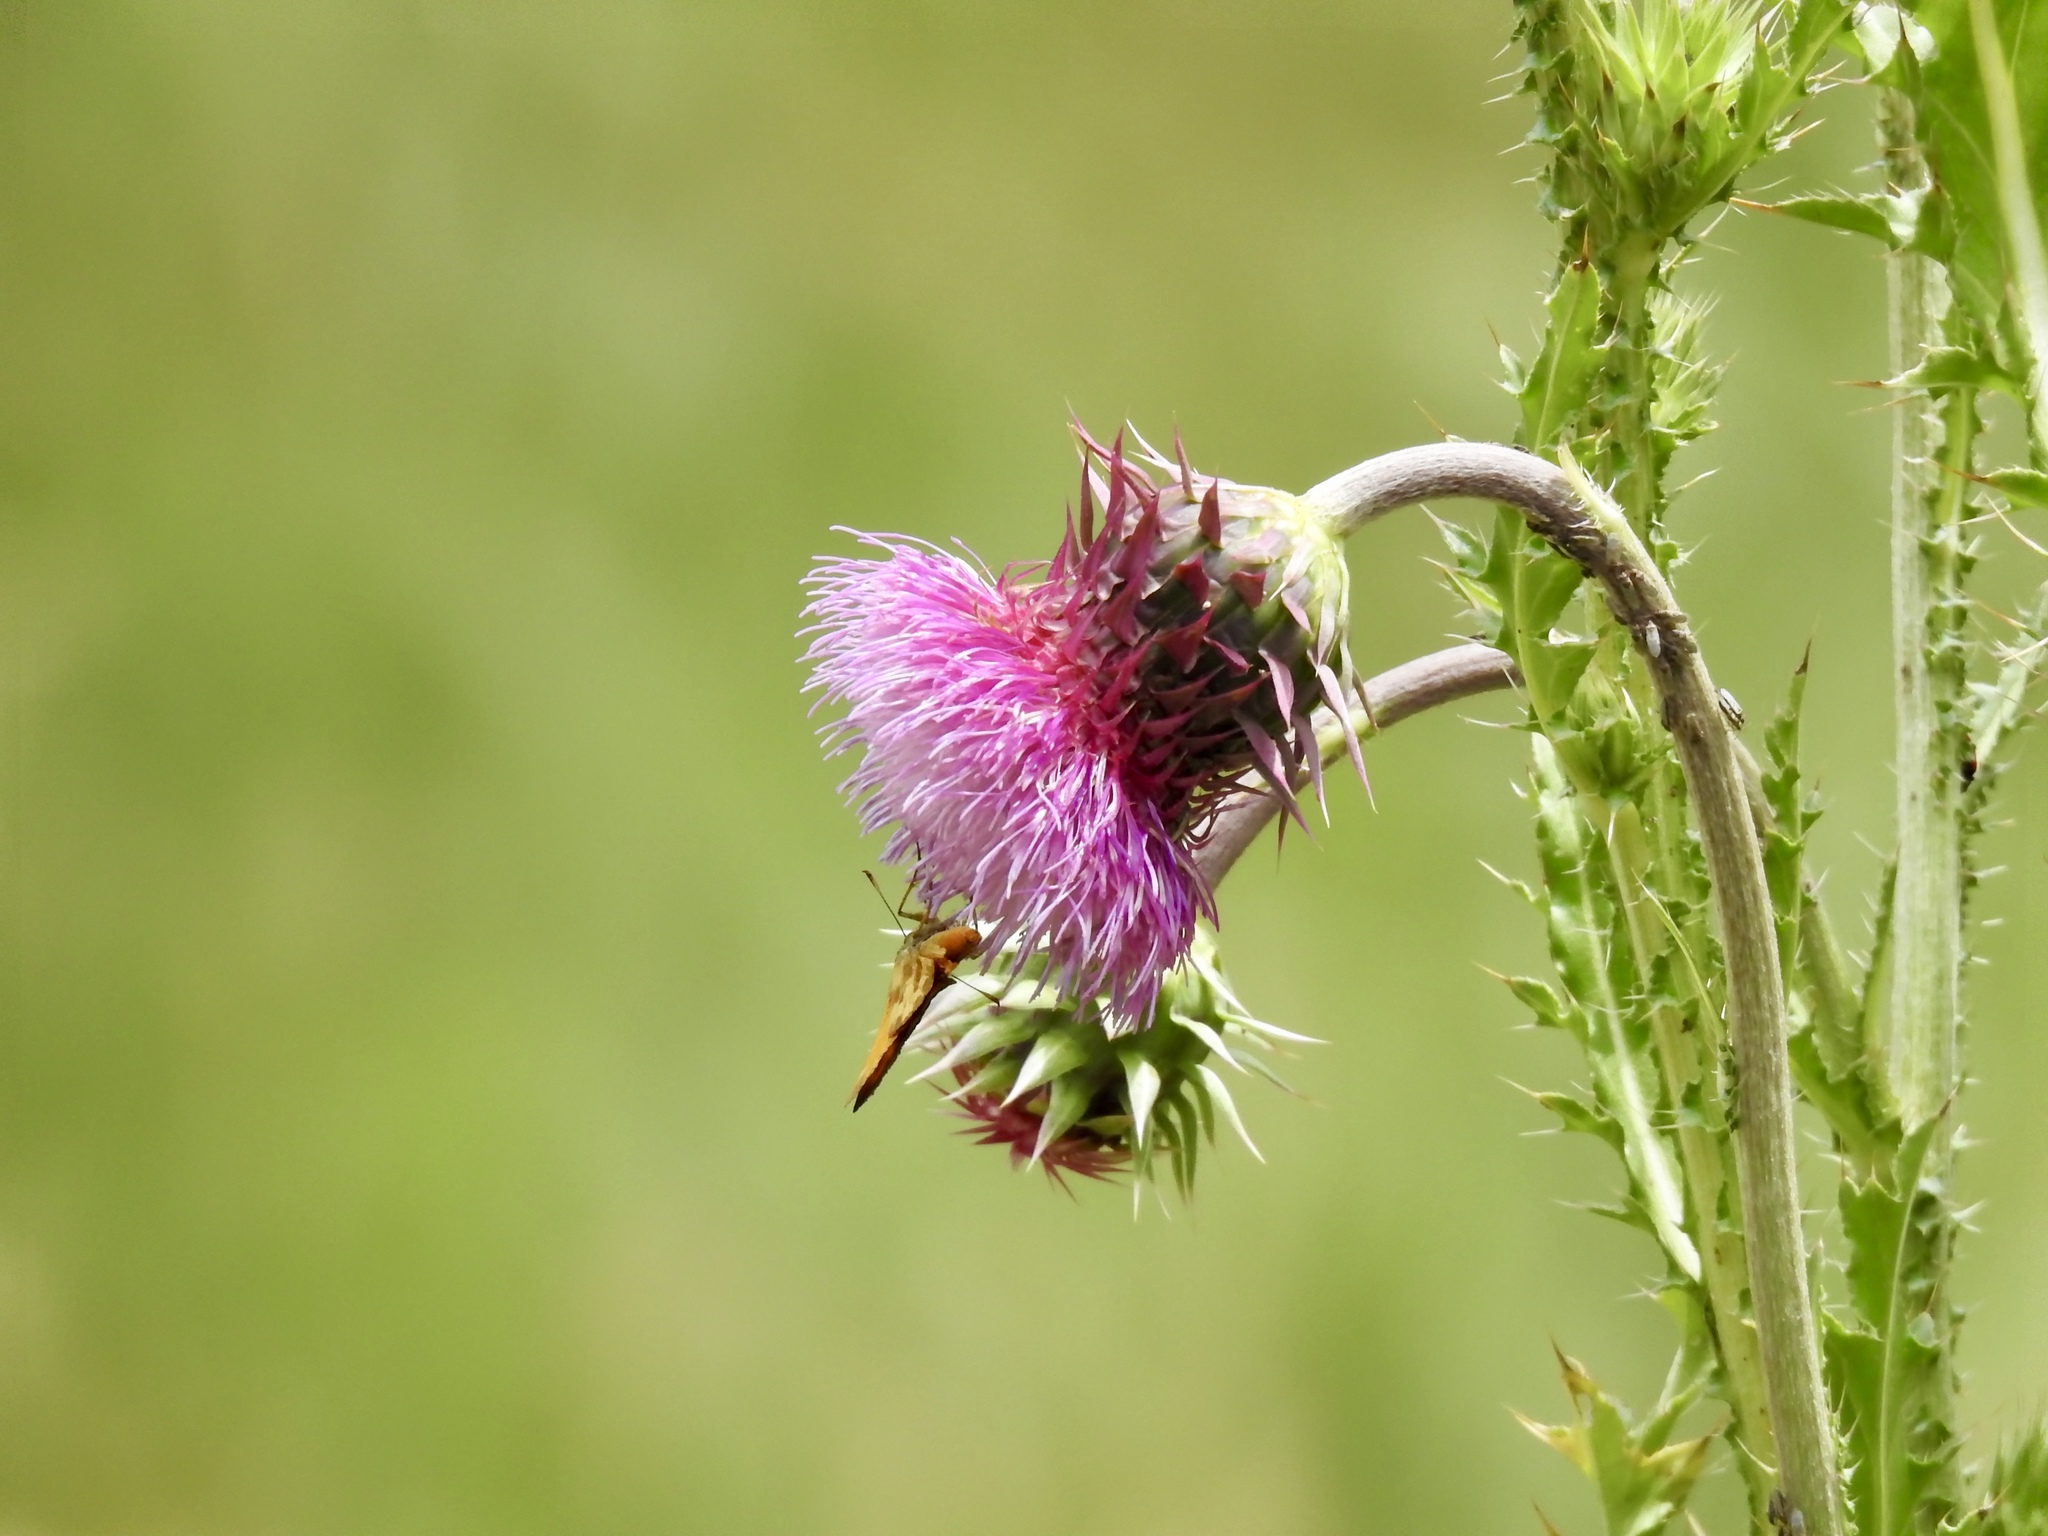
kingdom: Animalia
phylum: Arthropoda
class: Insecta
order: Lepidoptera
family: Hesperiidae
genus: Lon
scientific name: Lon taxiles
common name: Taxiles skipper
